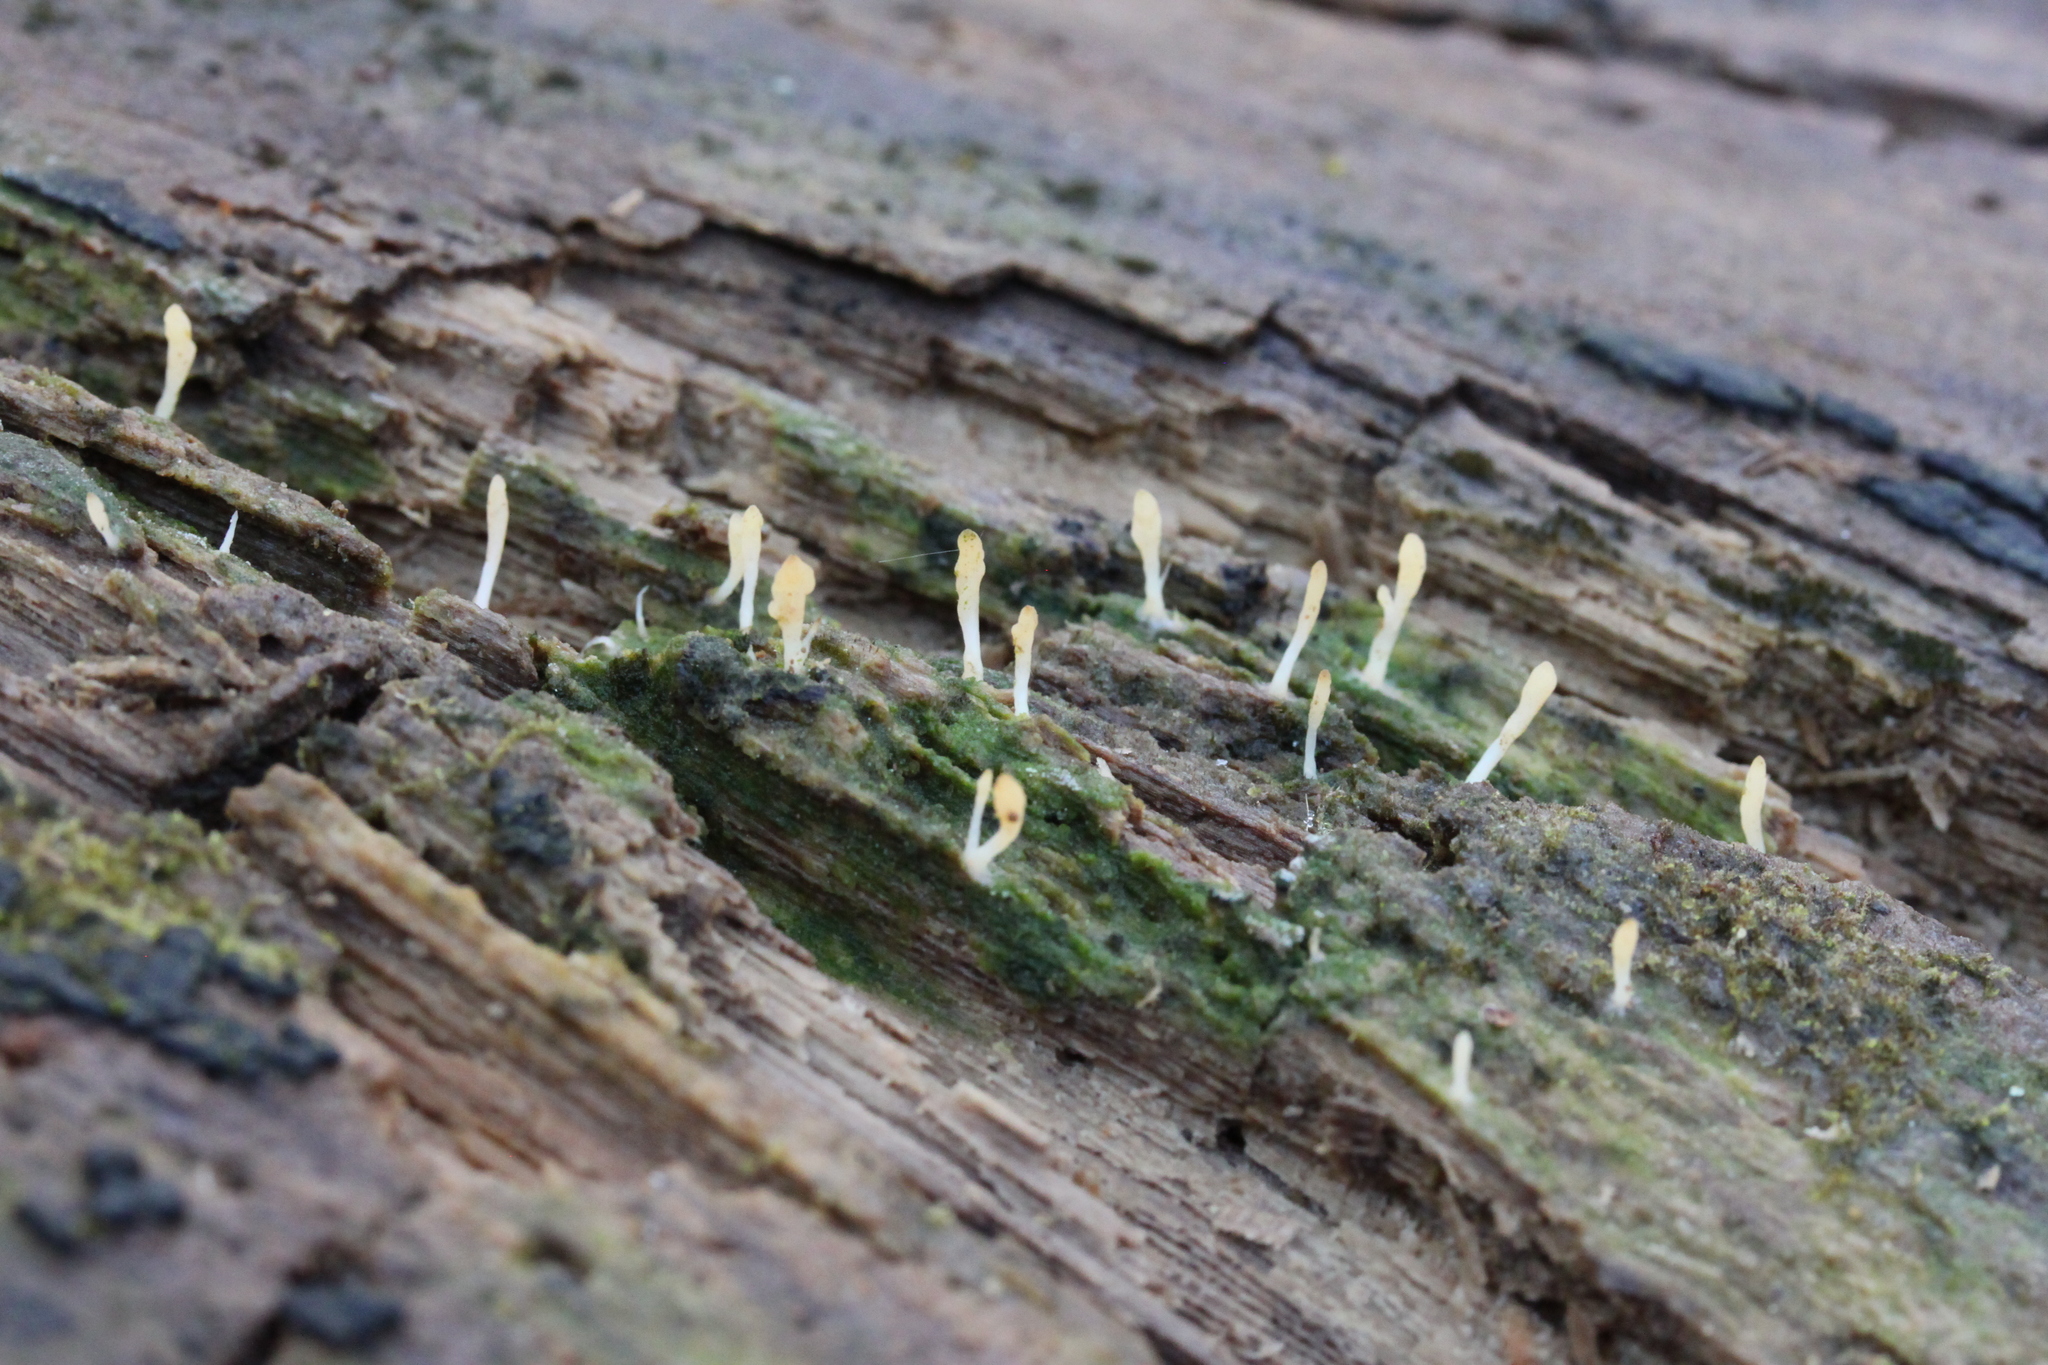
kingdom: Fungi
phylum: Basidiomycota
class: Agaricomycetes
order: Cantharellales
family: Hydnaceae
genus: Multiclavula
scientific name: Multiclavula mucida
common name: White green-algae coral
